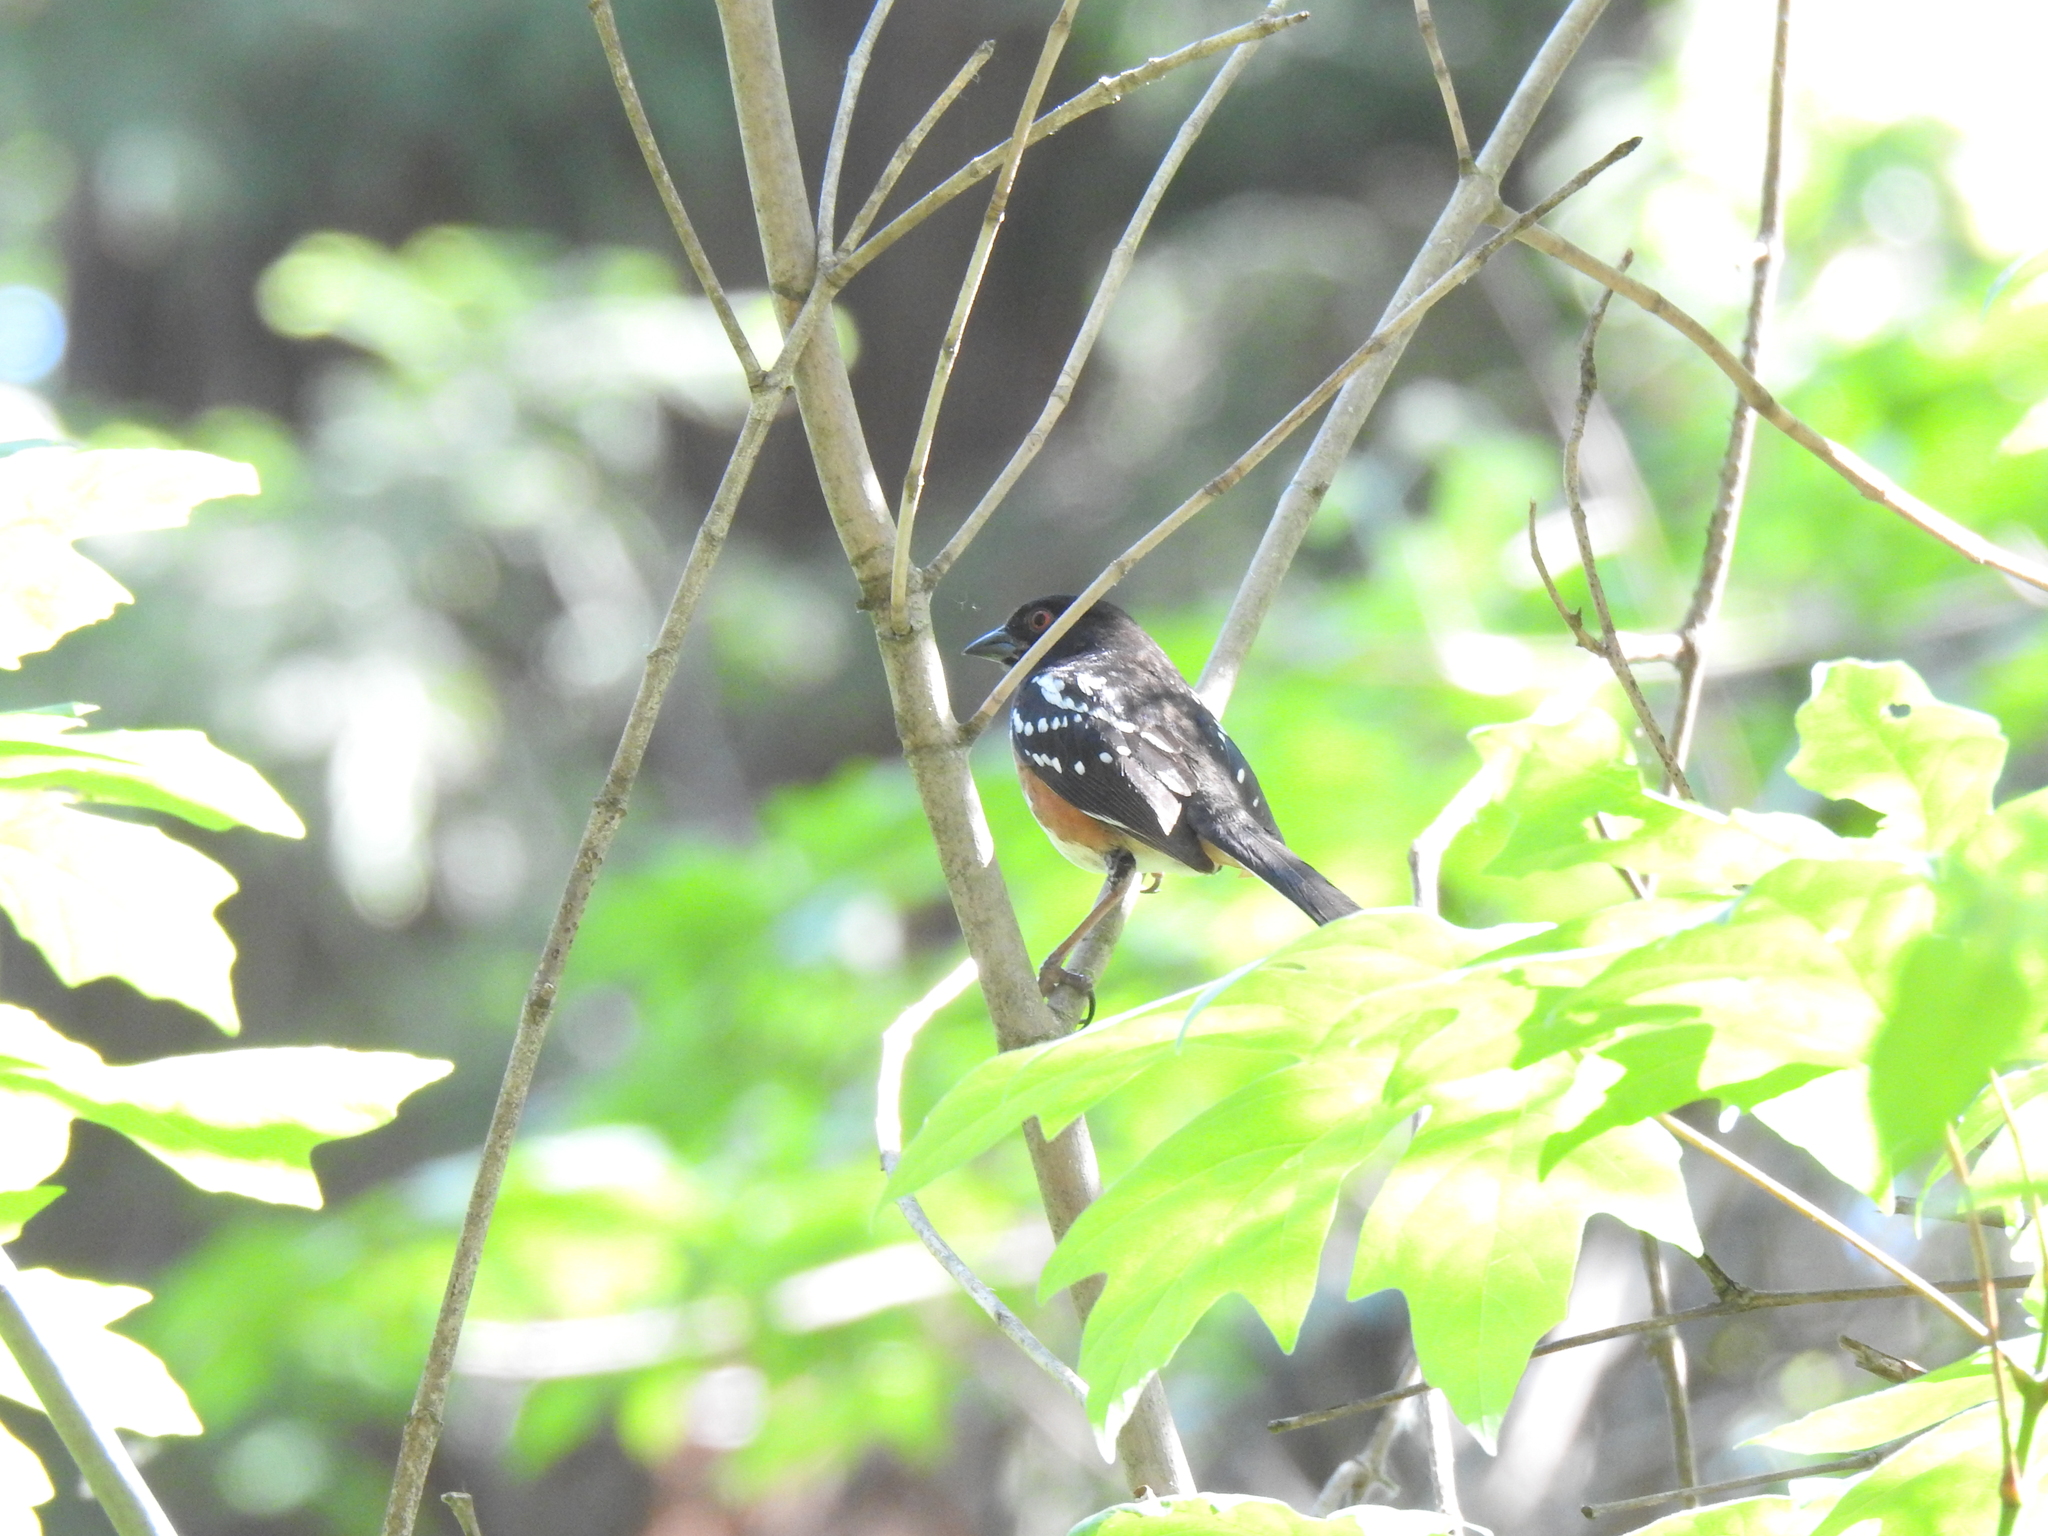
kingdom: Animalia
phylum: Chordata
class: Aves
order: Passeriformes
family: Passerellidae
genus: Pipilo
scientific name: Pipilo maculatus
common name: Spotted towhee
